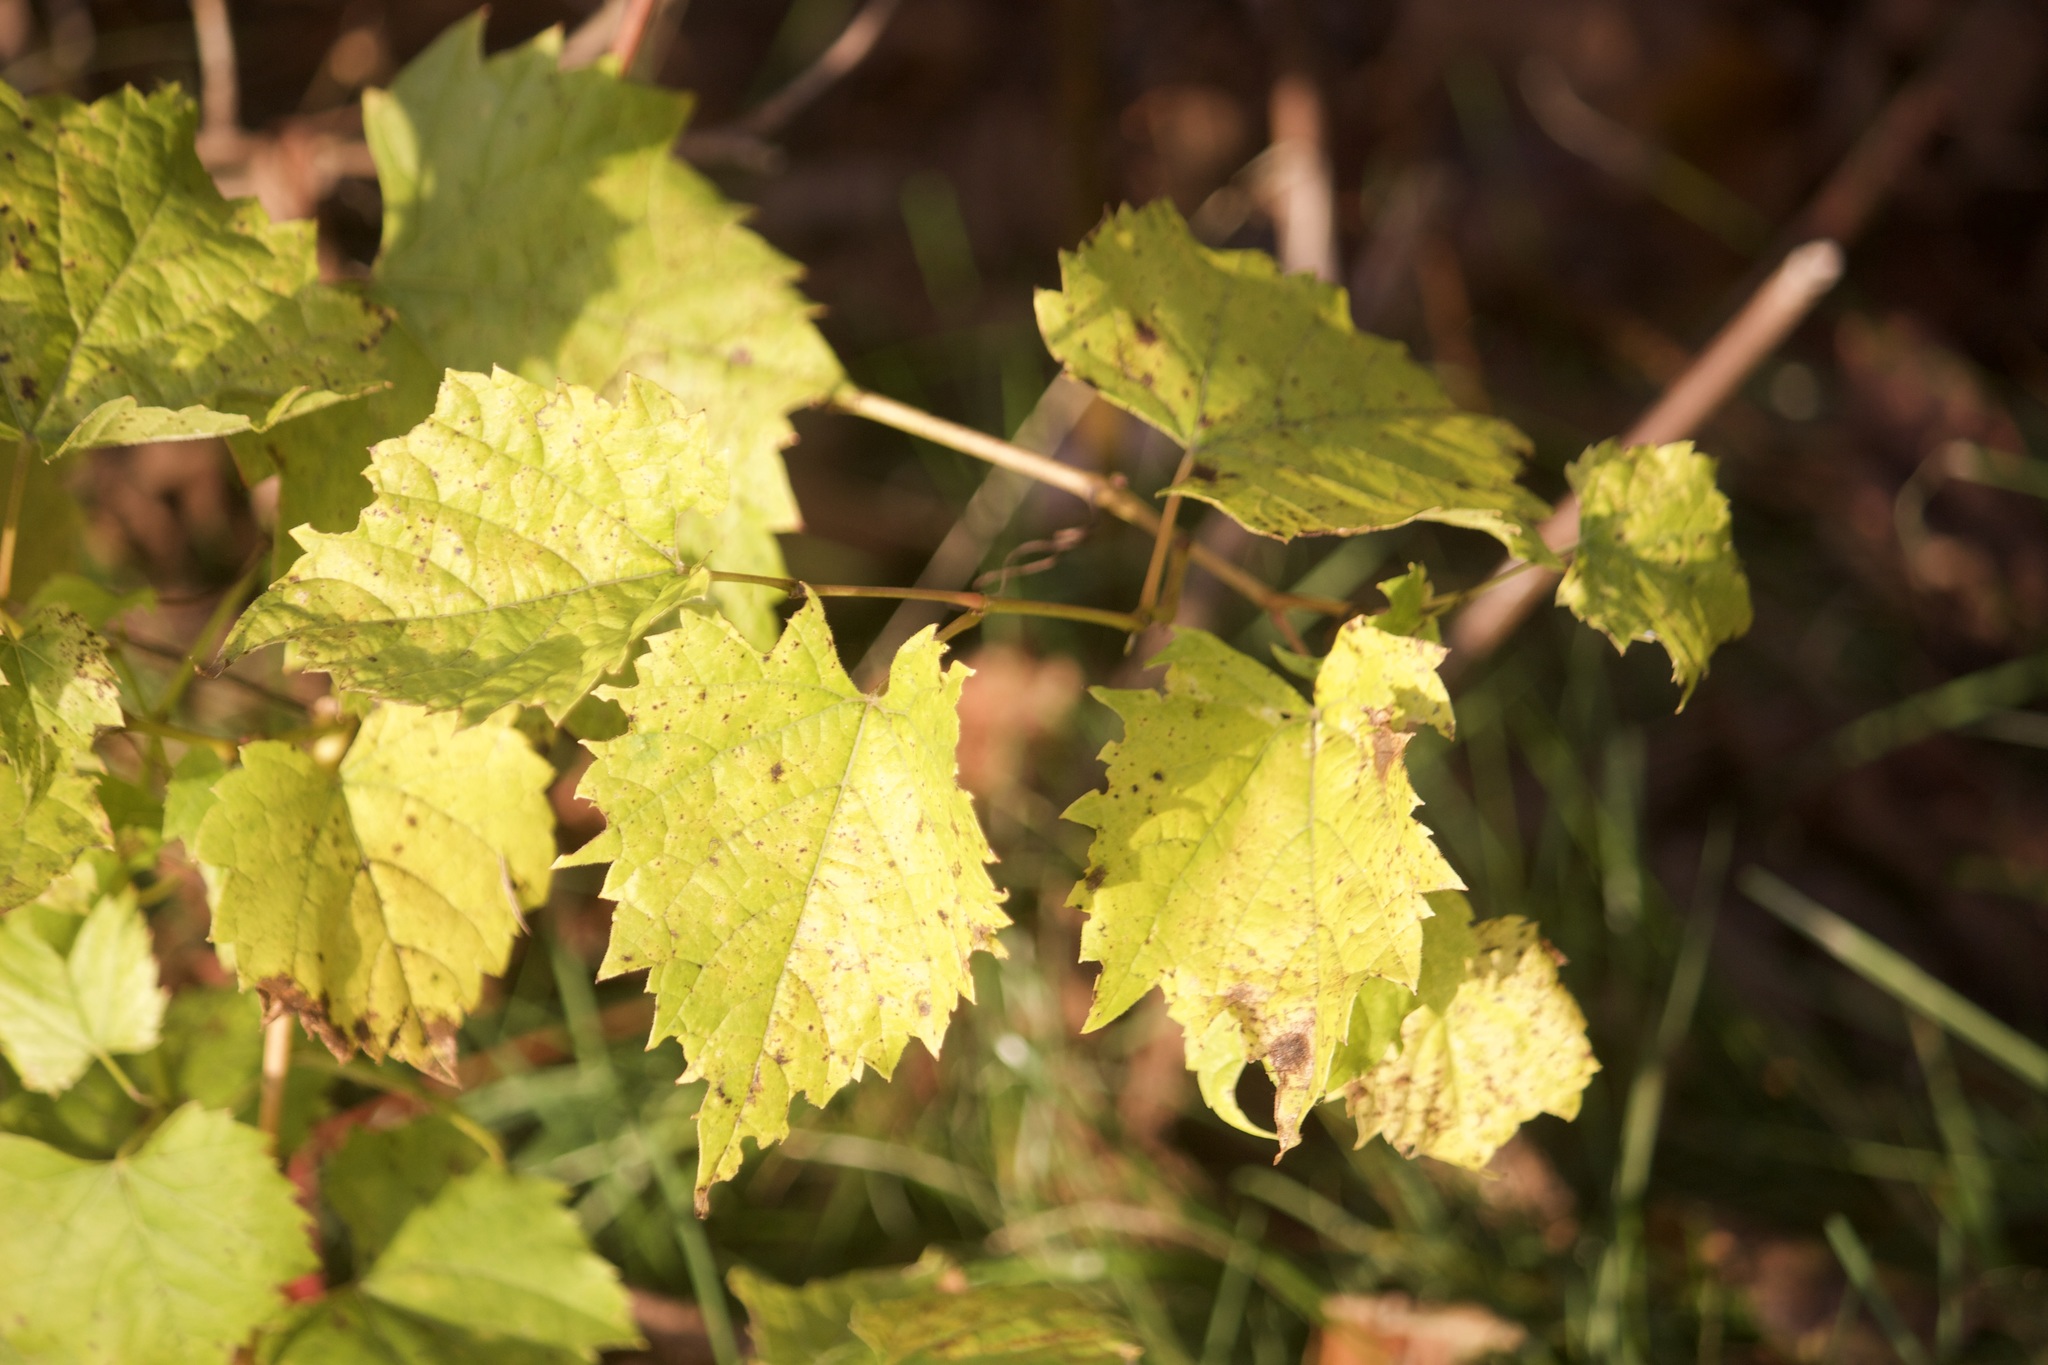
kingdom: Plantae
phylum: Tracheophyta
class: Magnoliopsida
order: Vitales
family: Vitaceae
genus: Vitis
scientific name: Vitis riparia
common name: Frost grape
